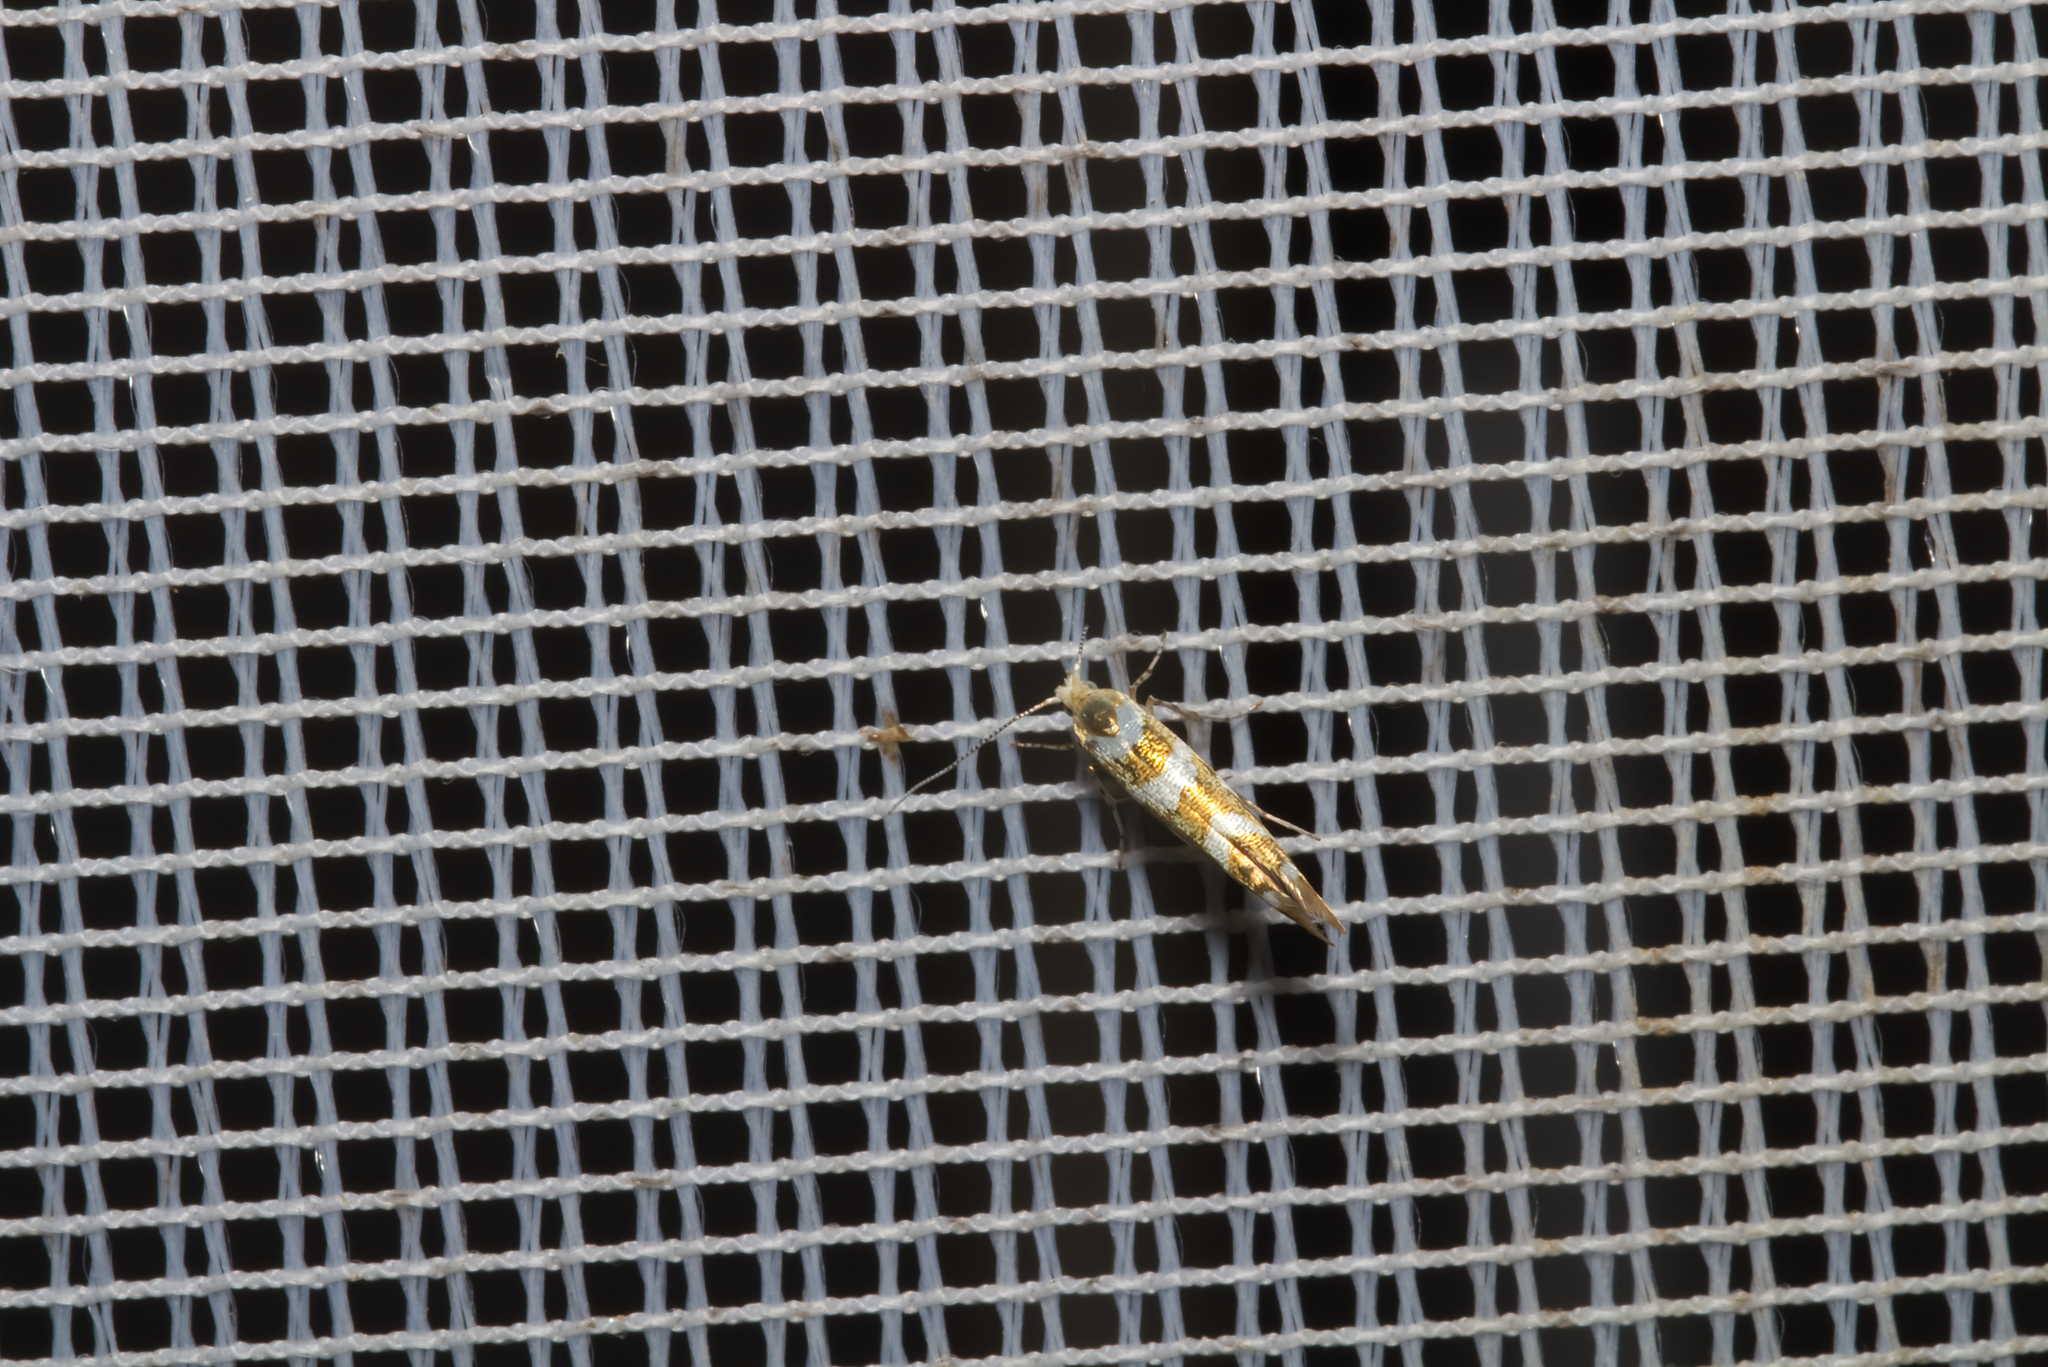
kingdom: Animalia
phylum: Arthropoda
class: Insecta
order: Lepidoptera
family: Argyresthiidae
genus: Argyresthia
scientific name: Argyresthia goedartella
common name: Golden argent
